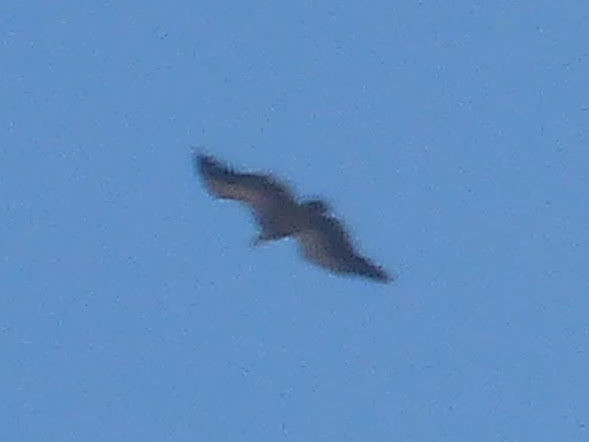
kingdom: Animalia
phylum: Chordata
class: Aves
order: Accipitriformes
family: Accipitridae
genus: Gyps
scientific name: Gyps fulvus
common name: Griffon vulture
